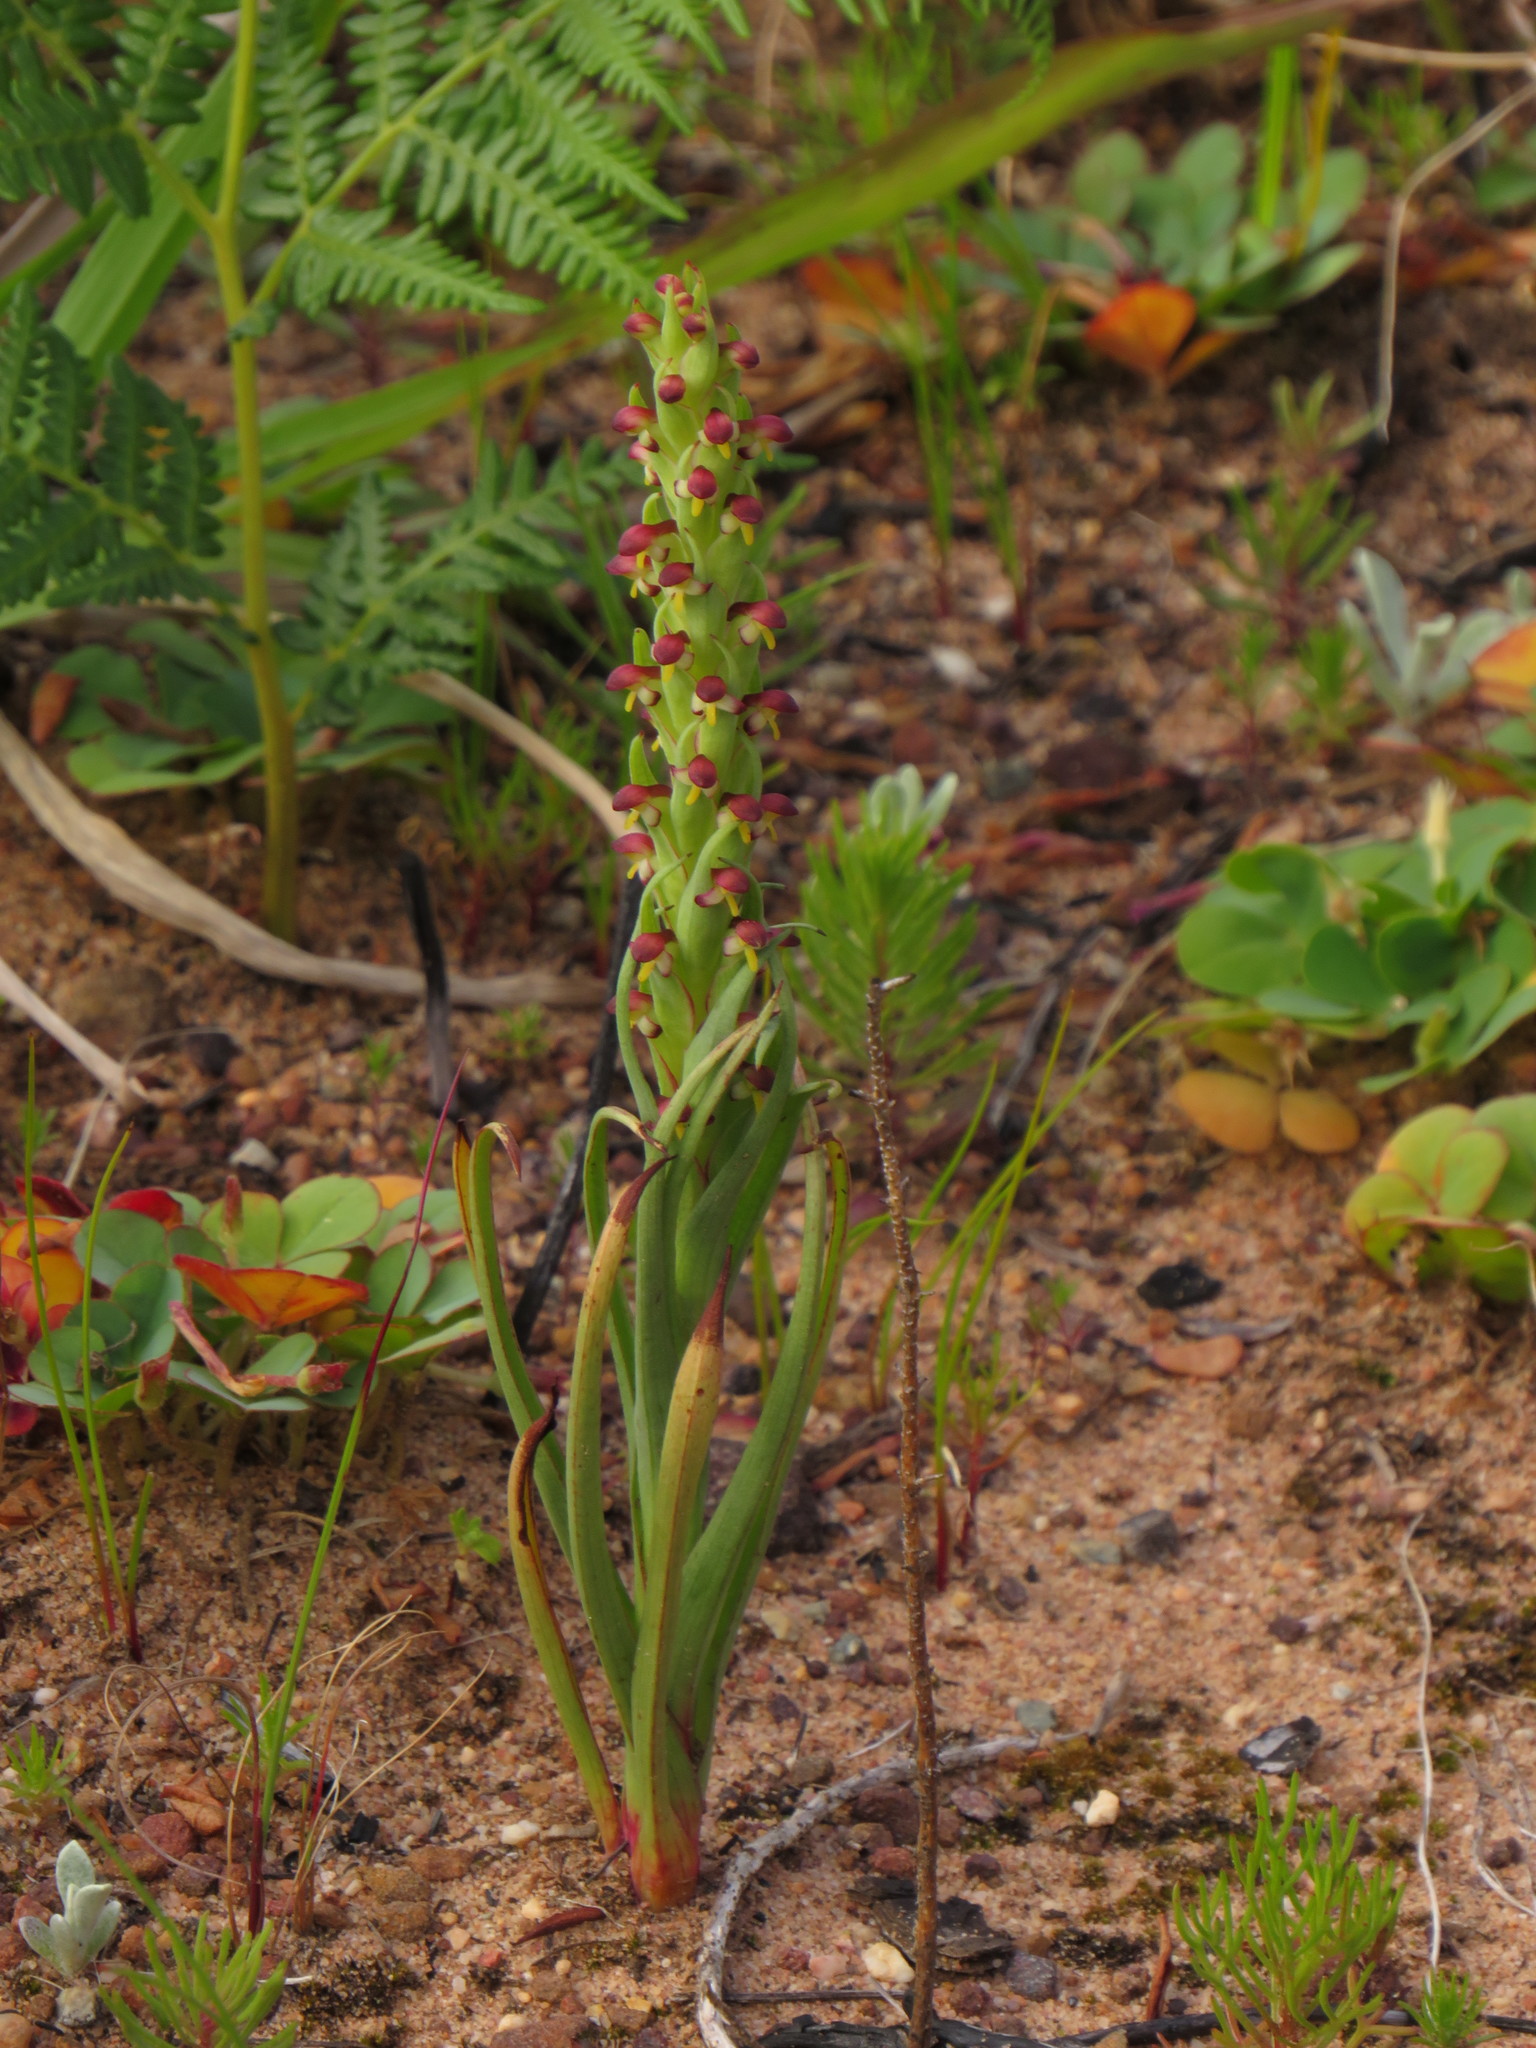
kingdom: Plantae
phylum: Tracheophyta
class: Liliopsida
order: Asparagales
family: Orchidaceae
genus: Disa
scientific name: Disa bracteata
